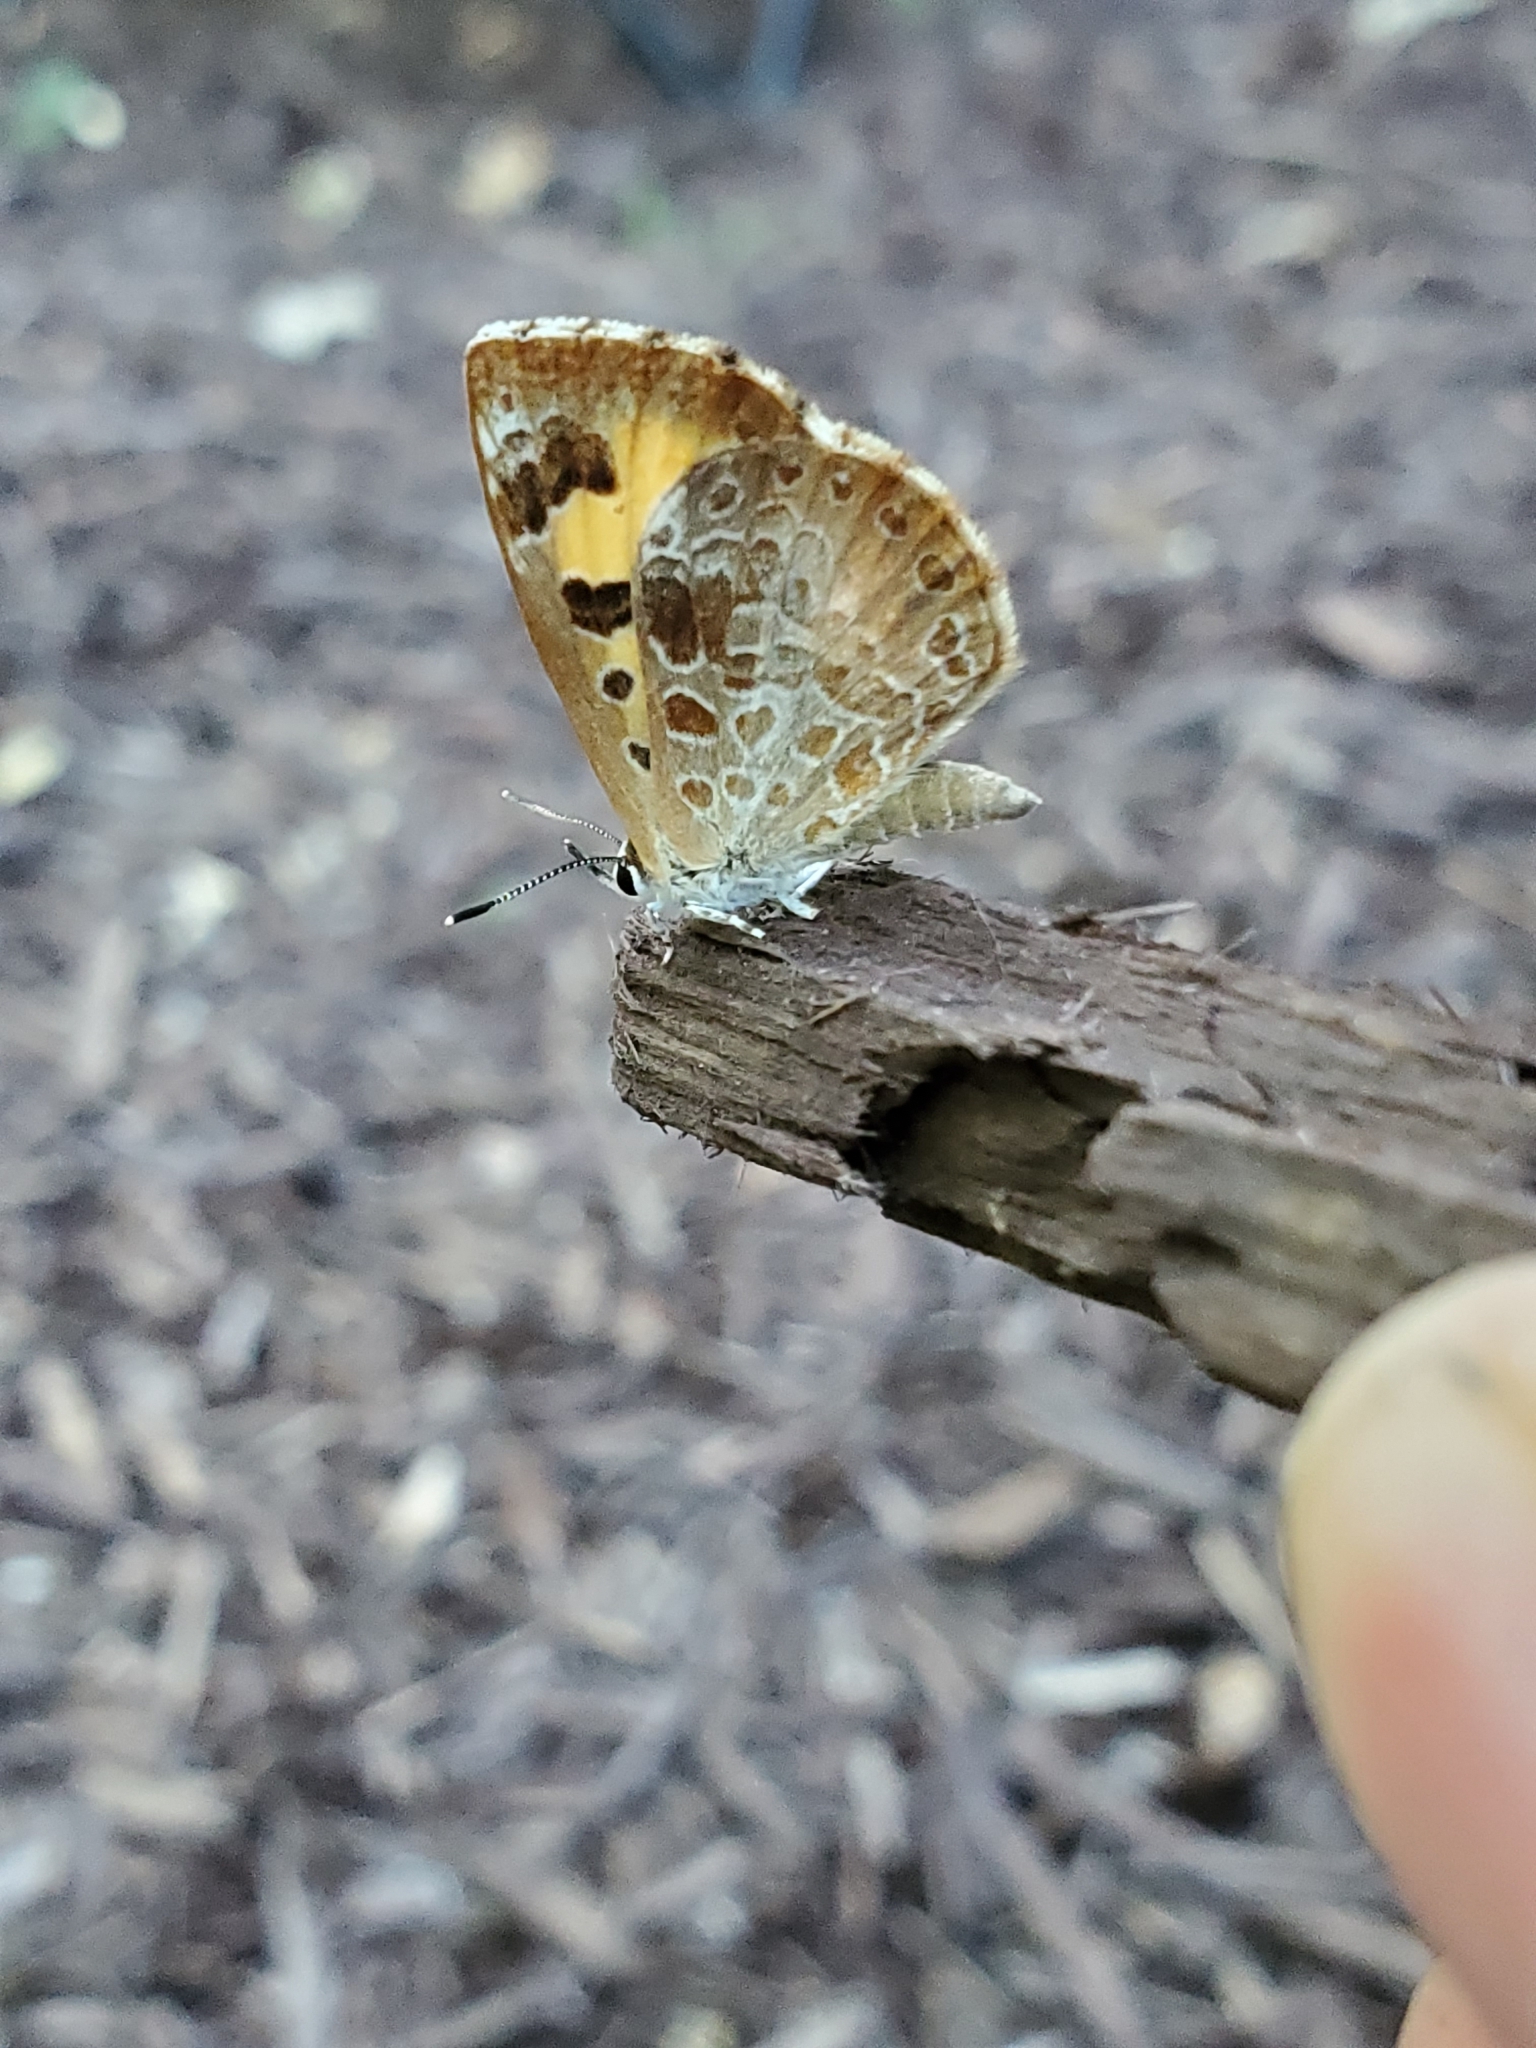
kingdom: Animalia
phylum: Arthropoda
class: Insecta
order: Lepidoptera
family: Lycaenidae
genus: Feniseca
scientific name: Feniseca tarquinius
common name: Harvester
